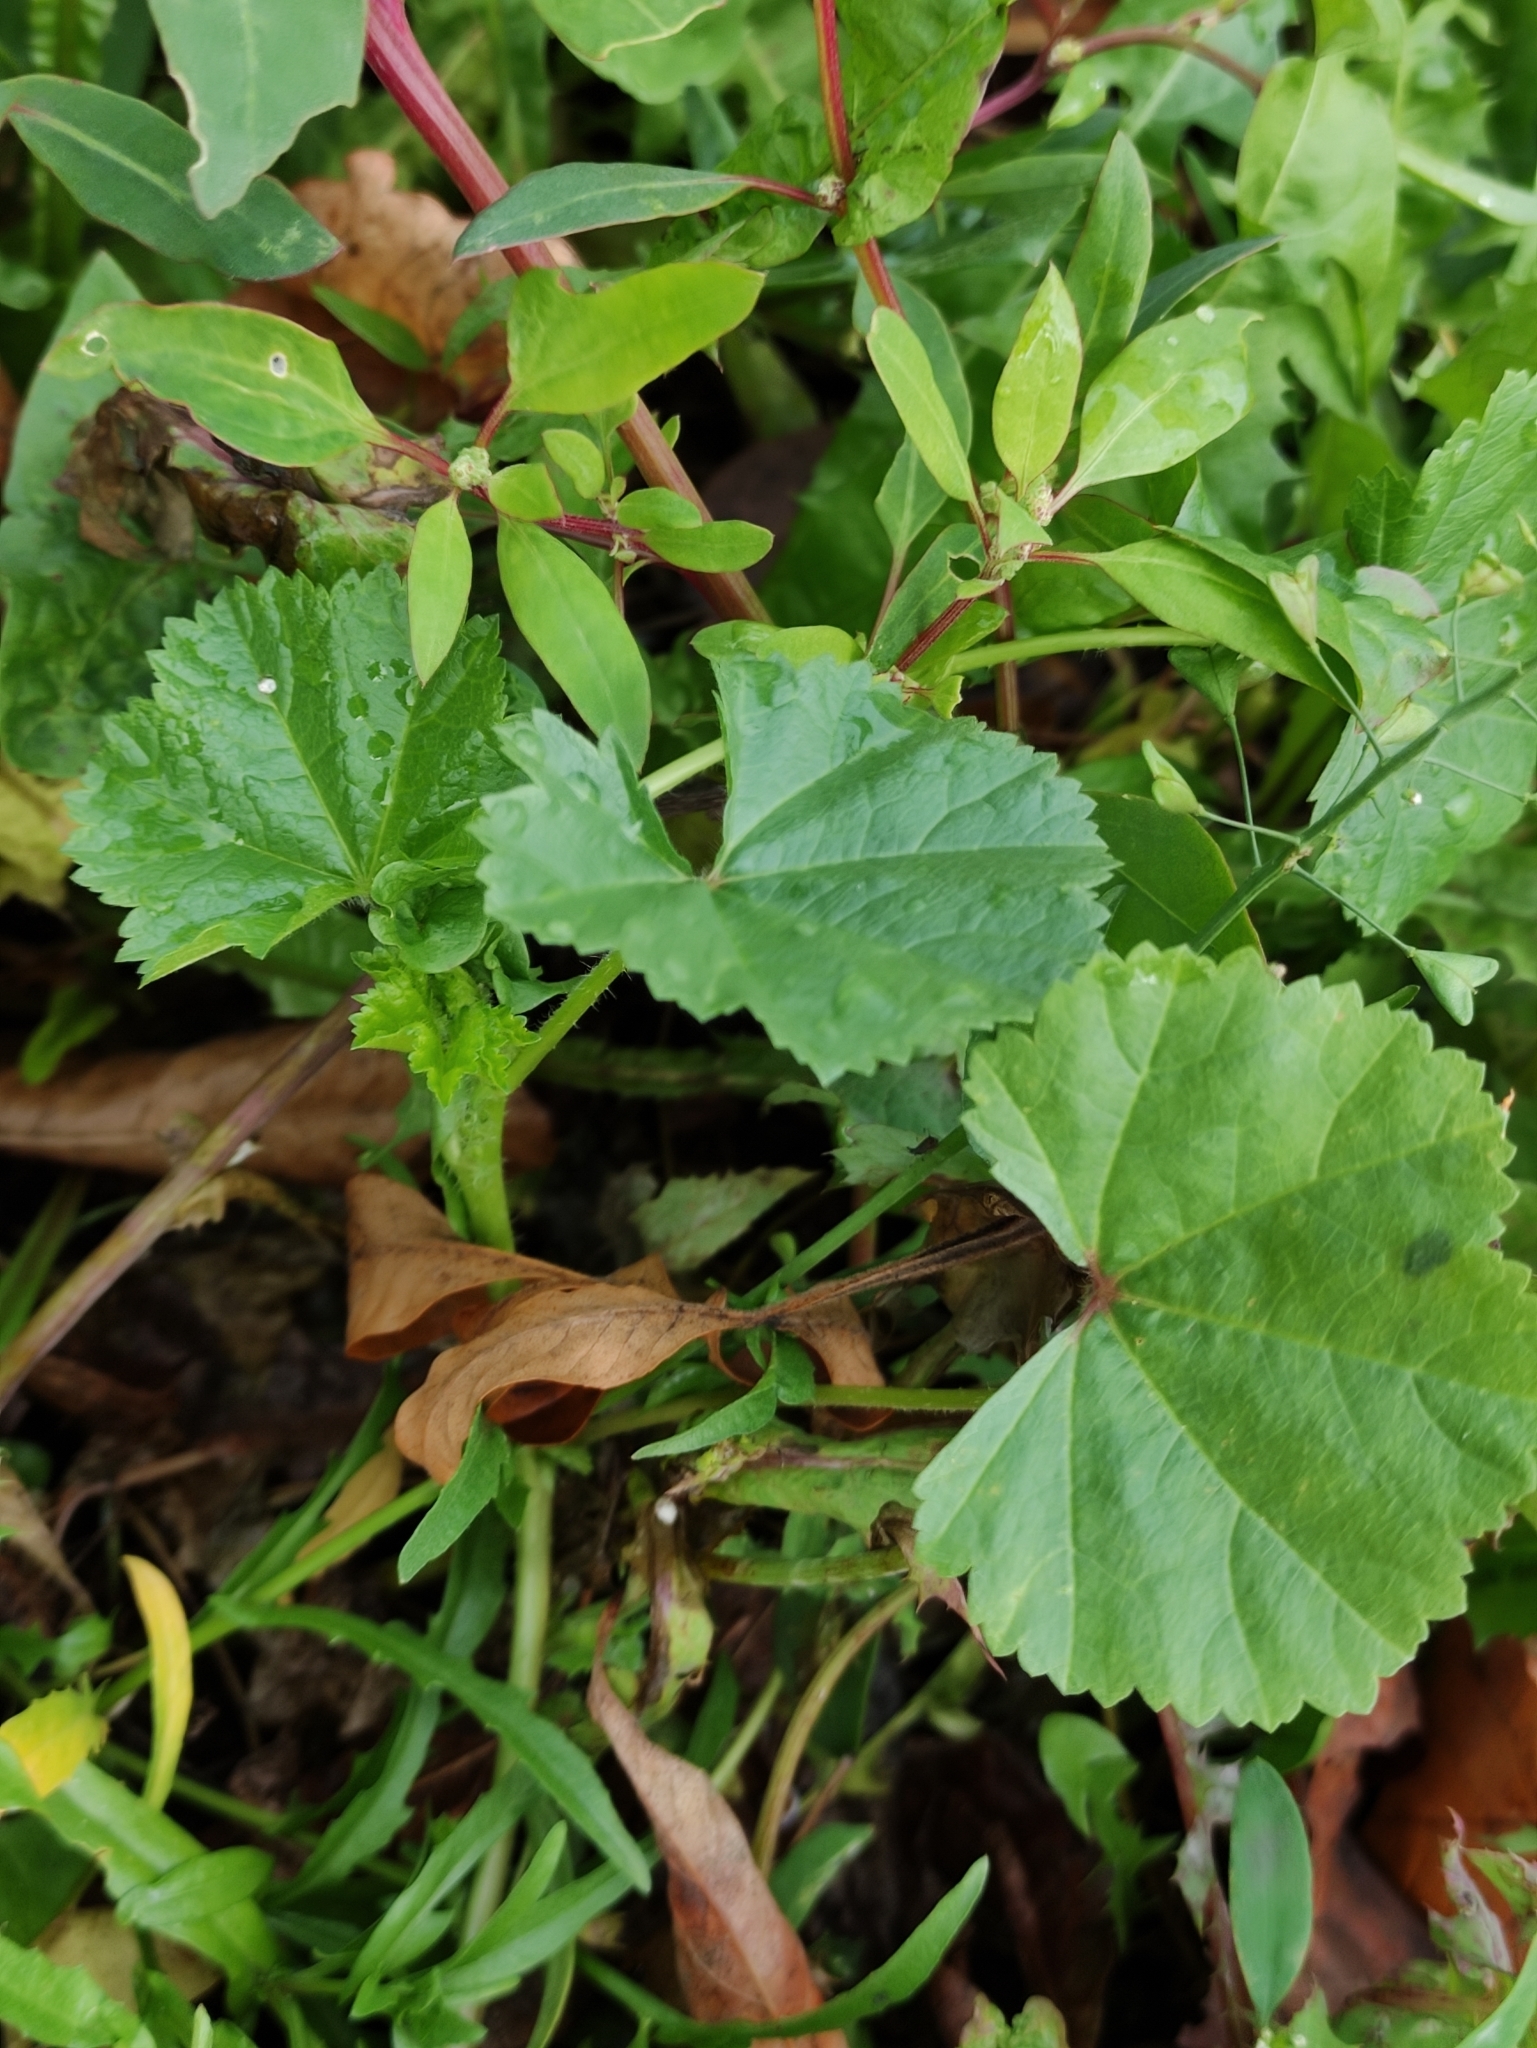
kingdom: Plantae
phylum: Tracheophyta
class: Magnoliopsida
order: Malvales
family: Malvaceae
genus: Malva
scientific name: Malva pusilla
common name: Small mallow
